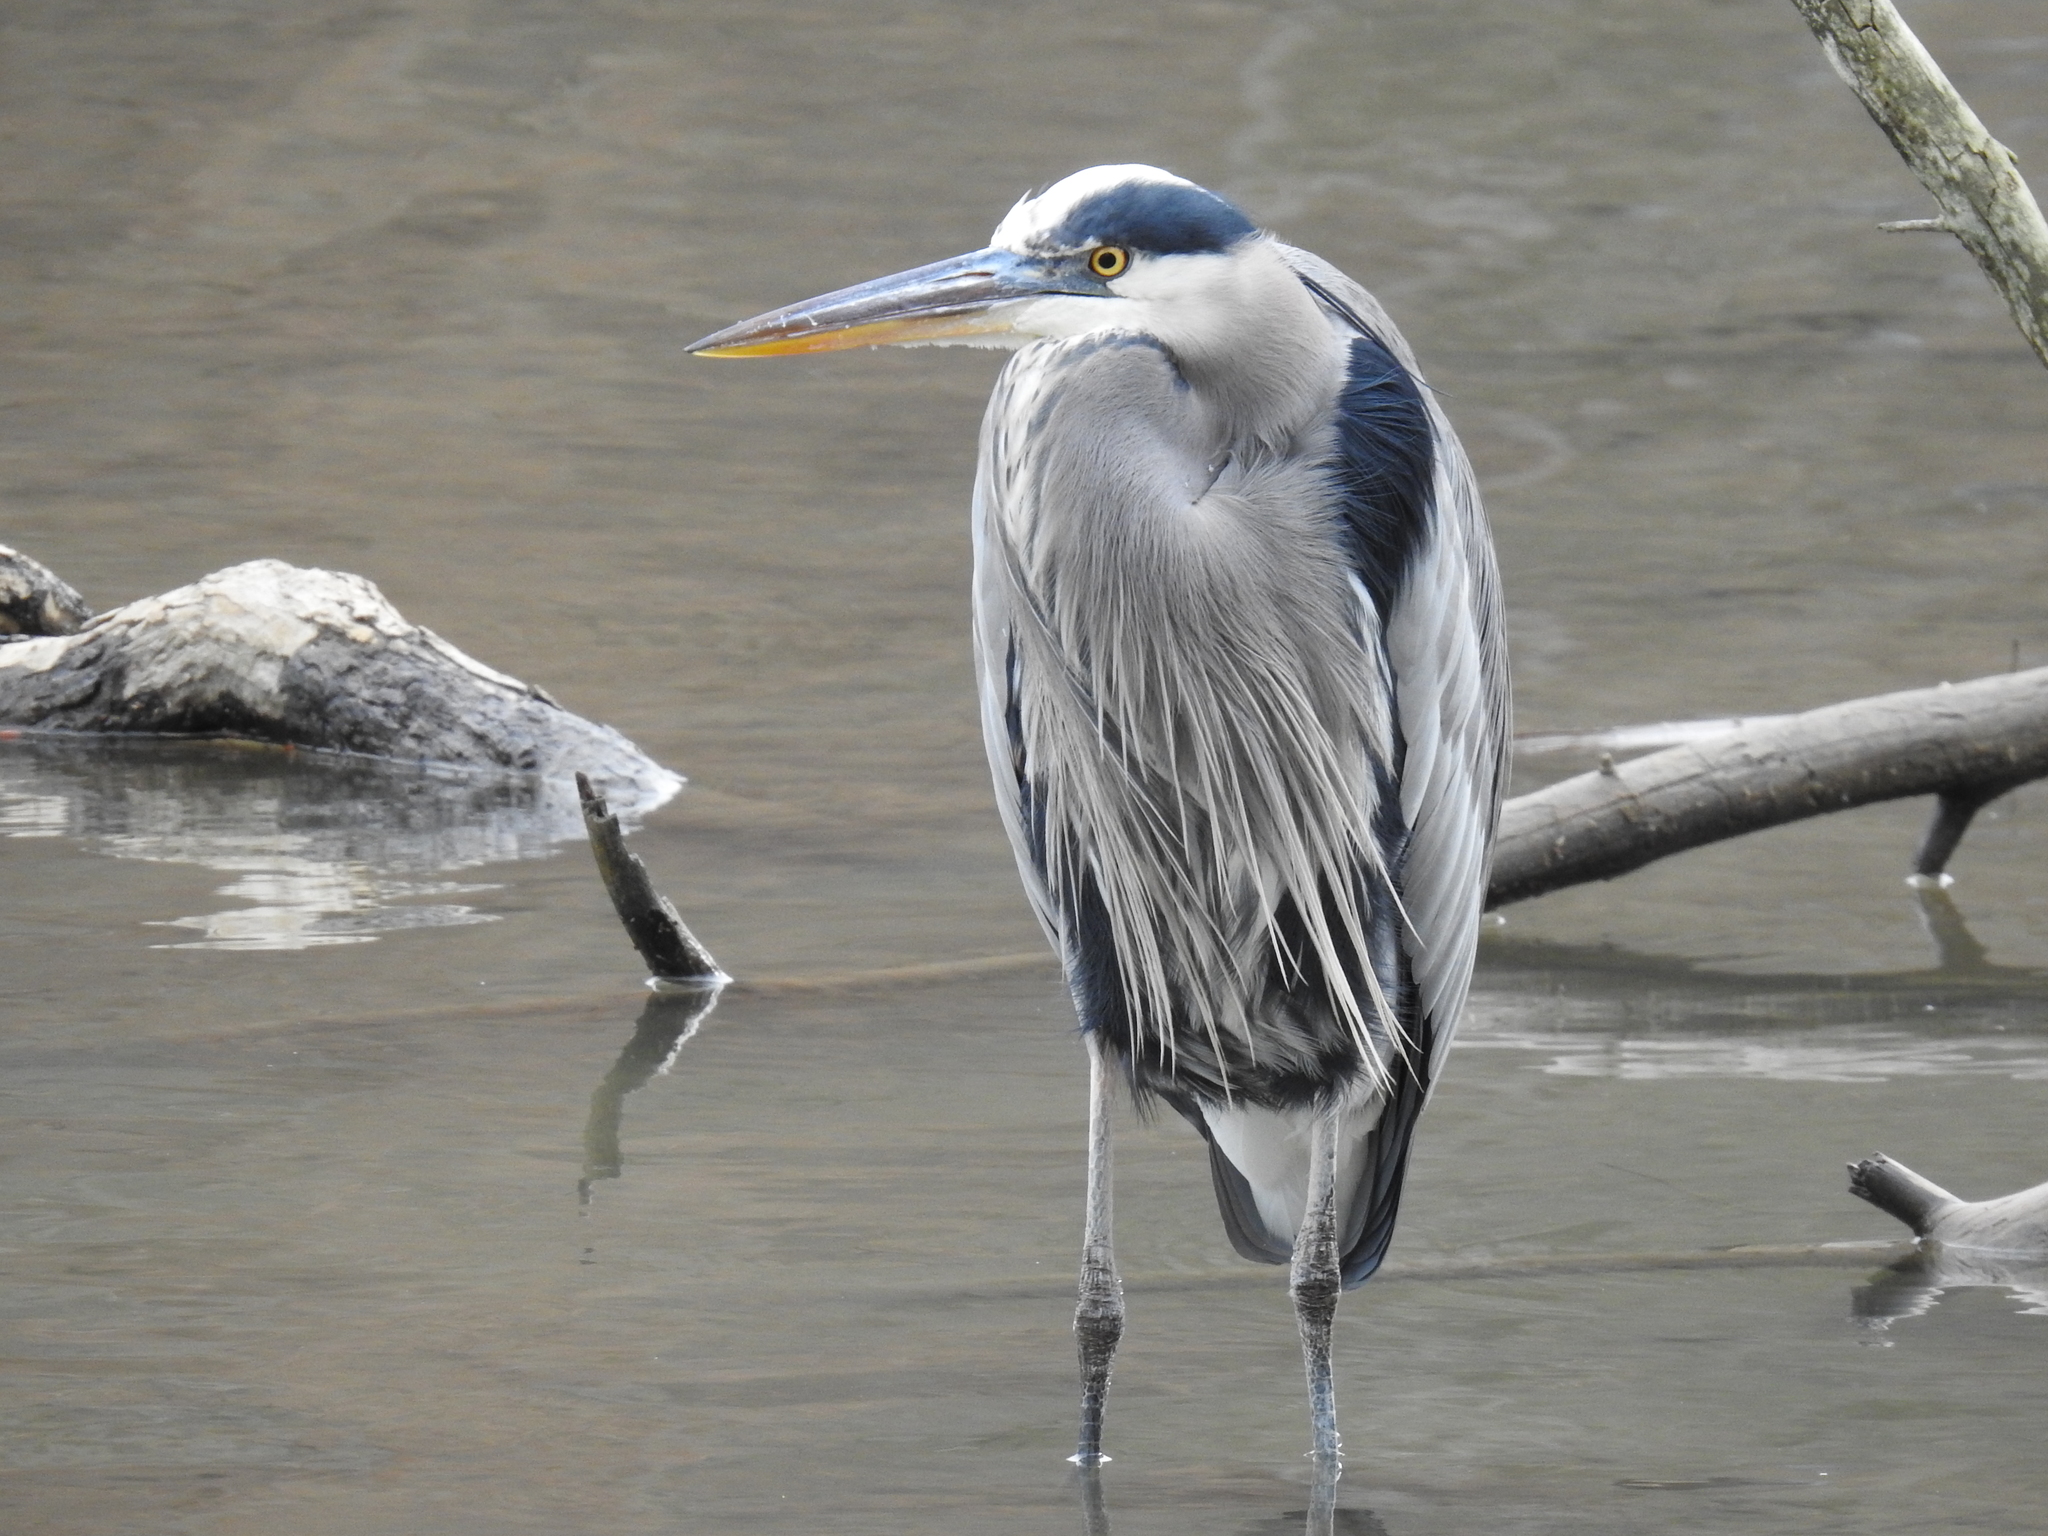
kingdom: Animalia
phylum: Chordata
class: Aves
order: Pelecaniformes
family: Ardeidae
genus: Ardea
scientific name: Ardea herodias
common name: Great blue heron
